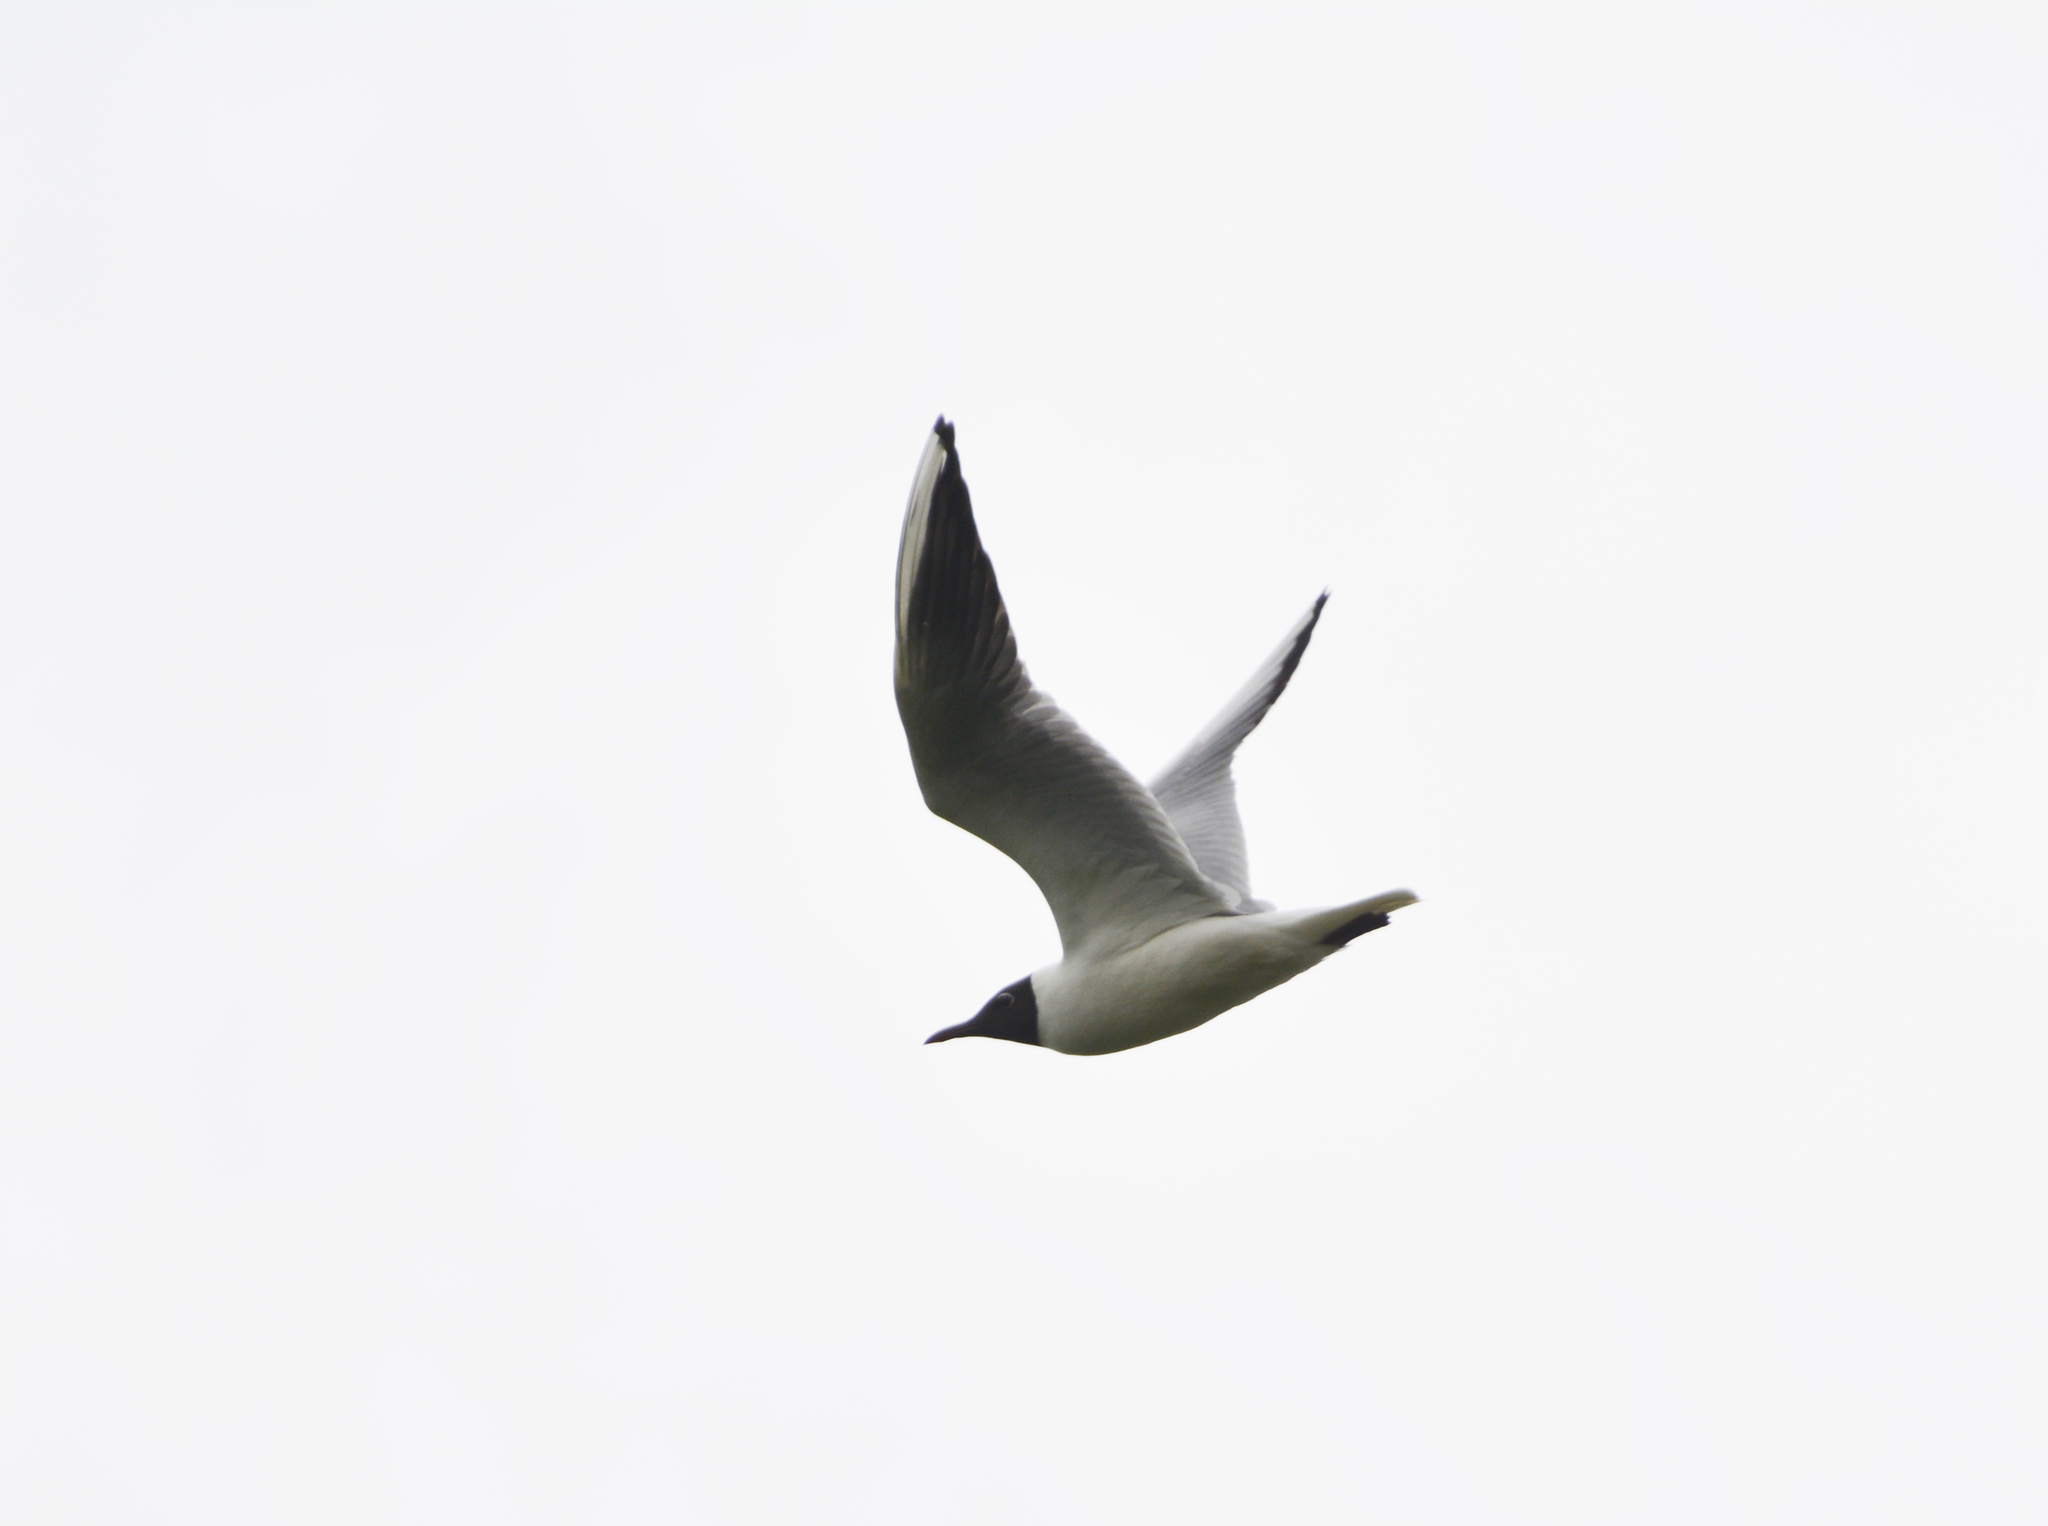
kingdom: Animalia
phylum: Chordata
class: Aves
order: Charadriiformes
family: Laridae
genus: Chroicocephalus
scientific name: Chroicocephalus ridibundus
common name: Black-headed gull
